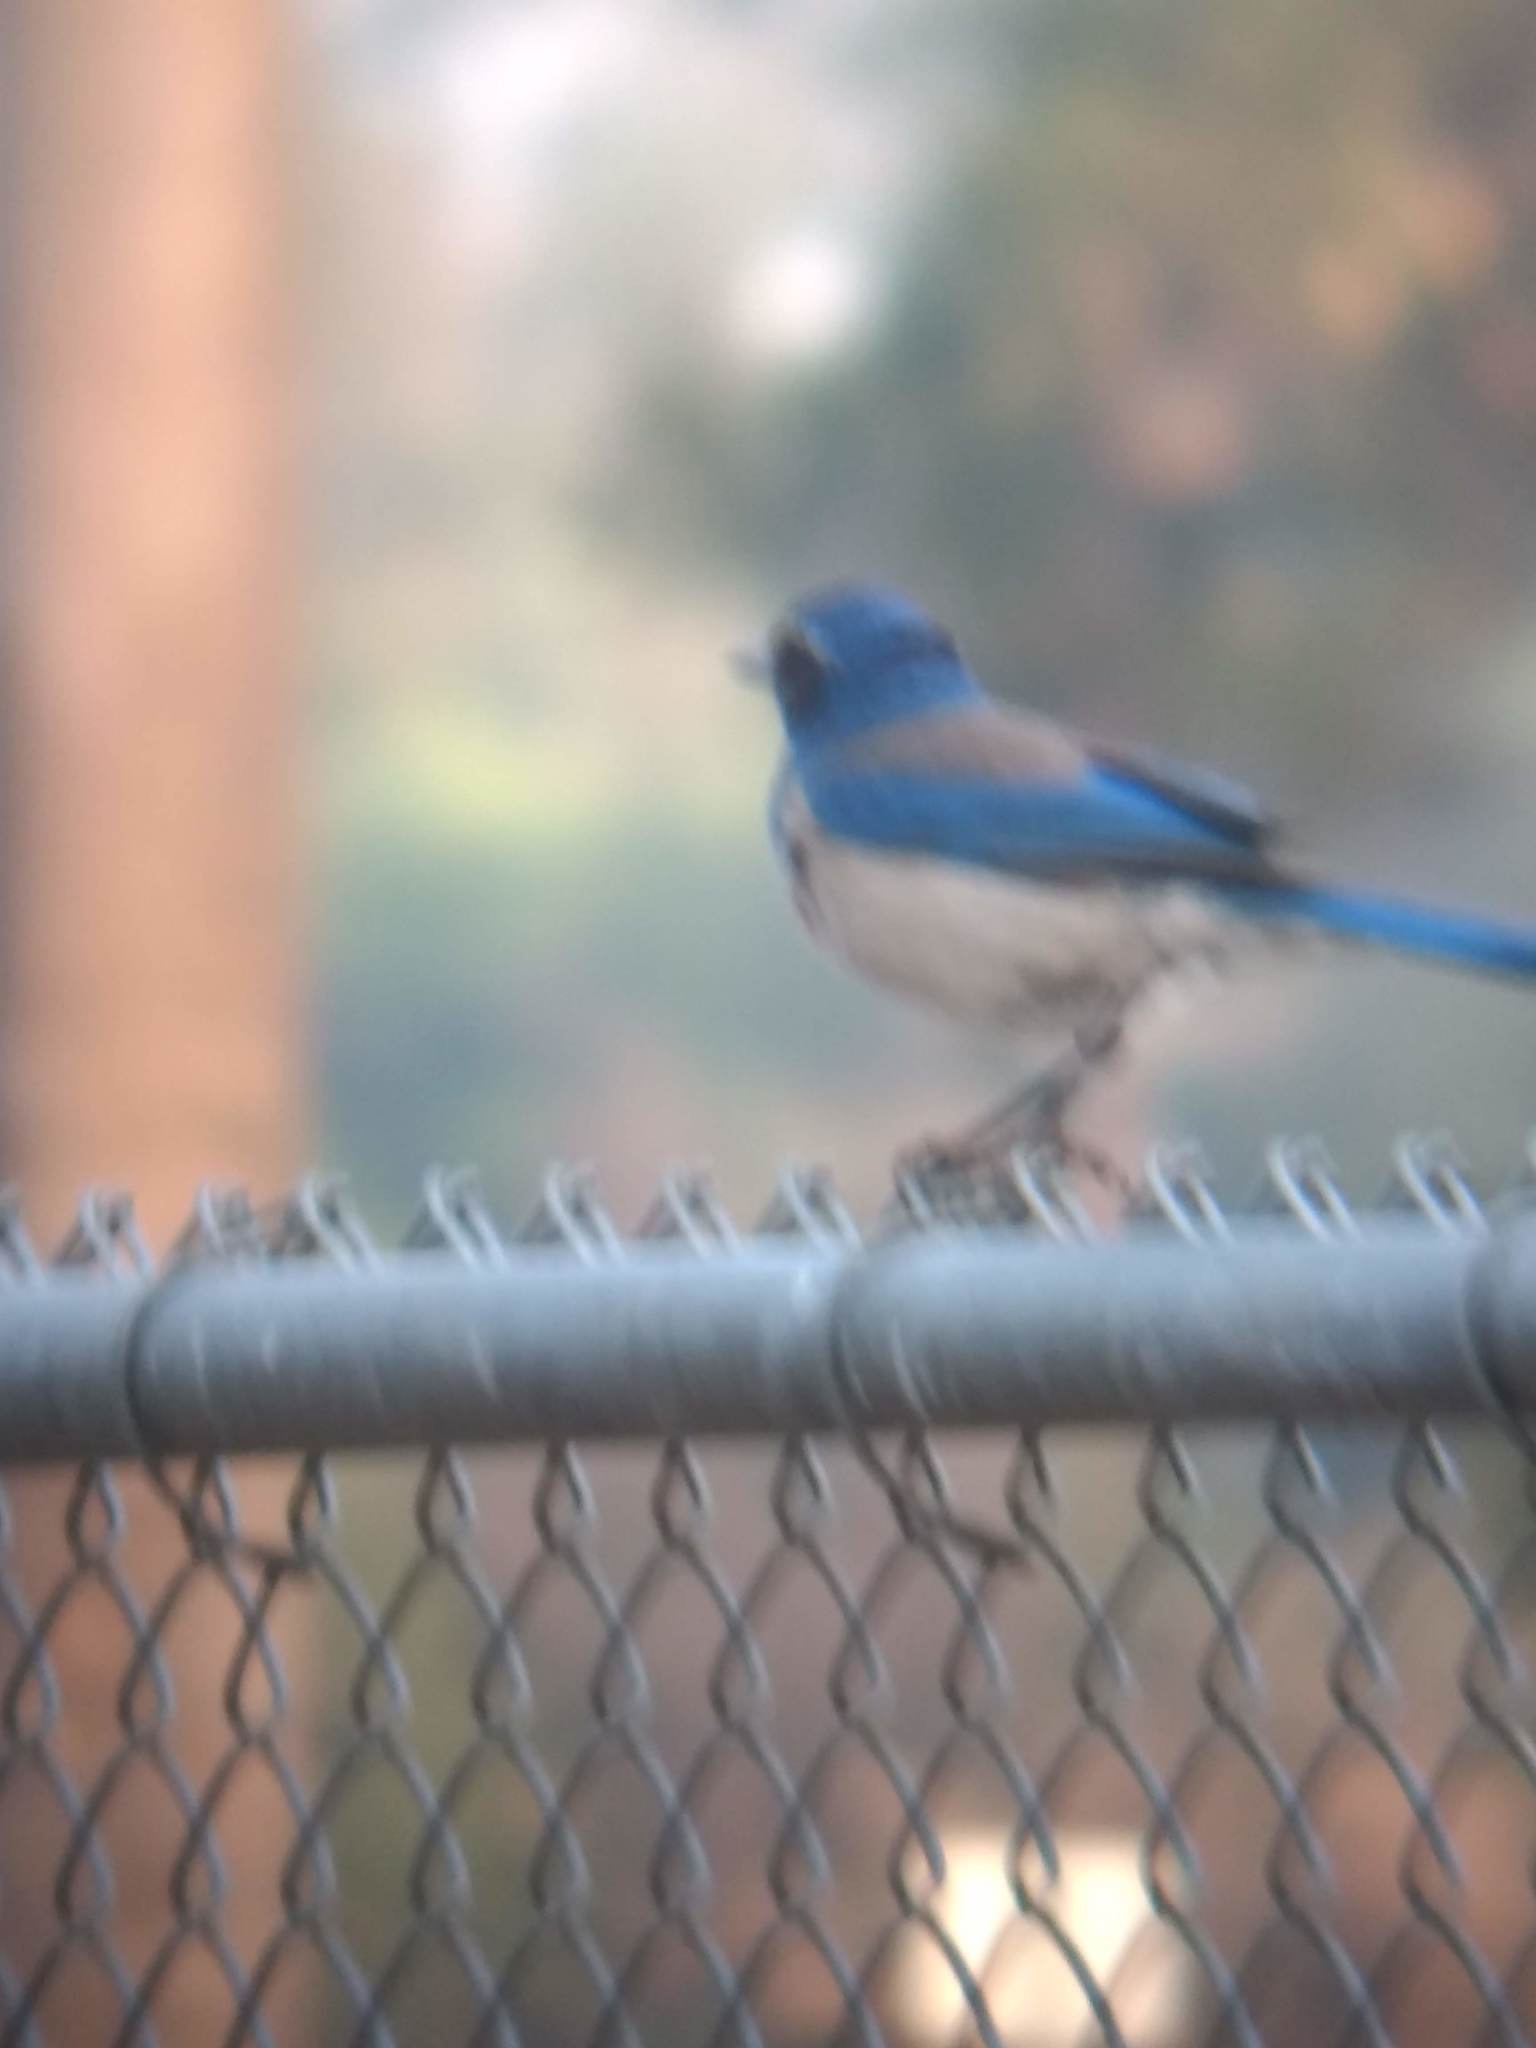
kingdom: Animalia
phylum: Chordata
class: Aves
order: Passeriformes
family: Corvidae
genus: Aphelocoma
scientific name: Aphelocoma californica
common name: California scrub-jay
